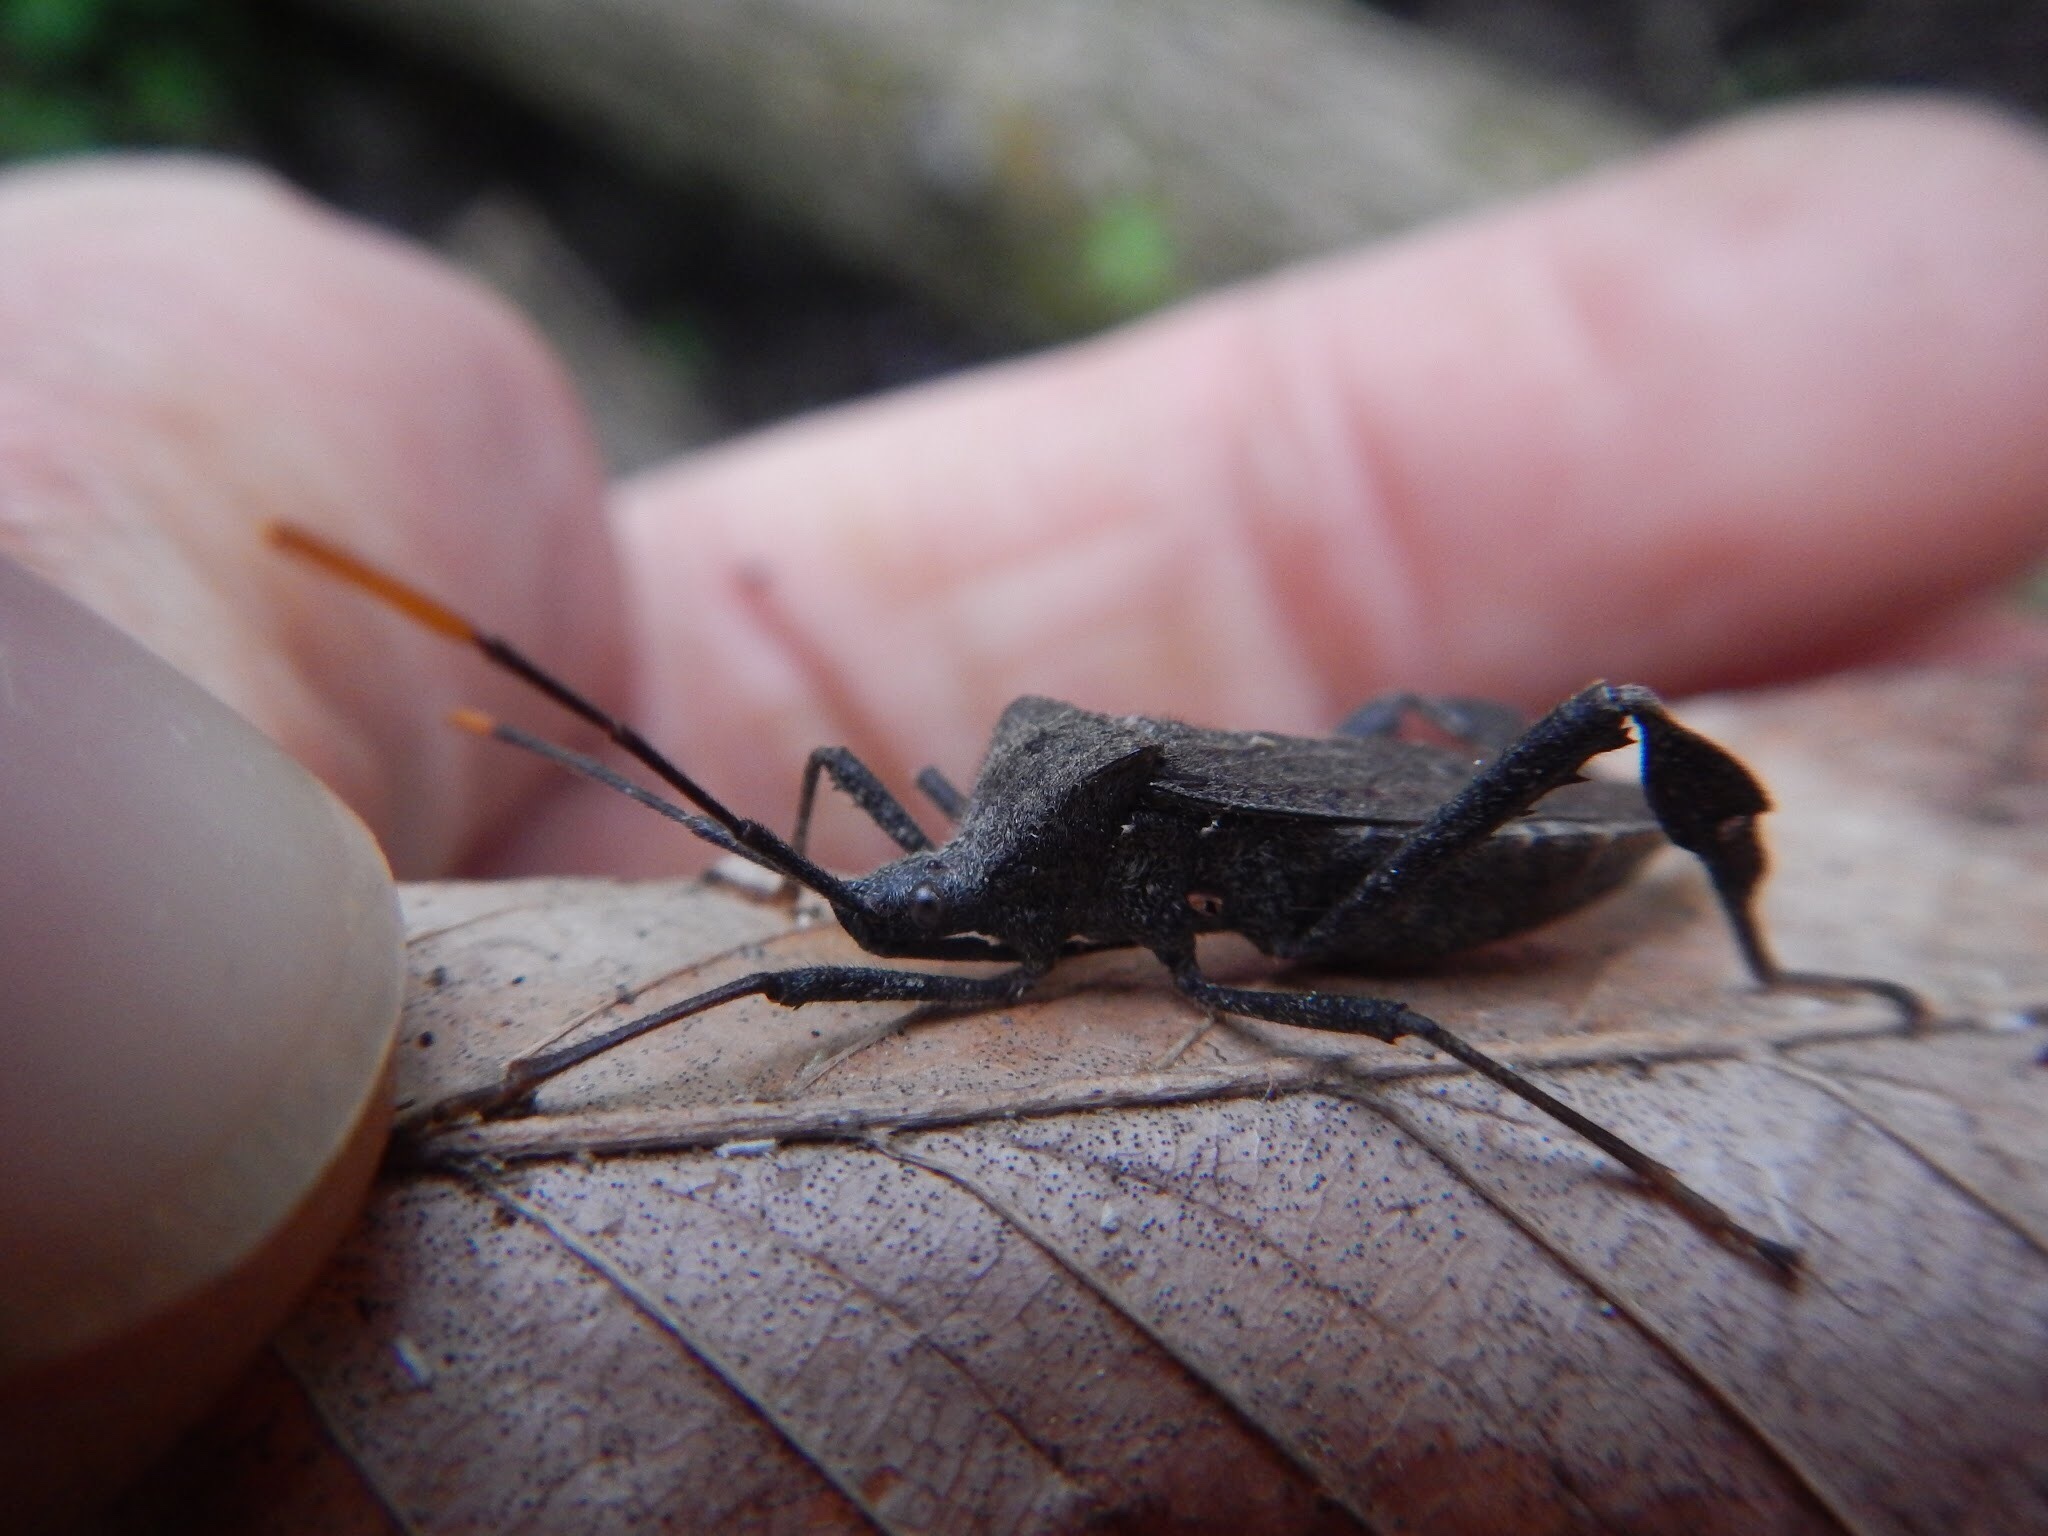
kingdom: Animalia
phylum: Arthropoda
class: Insecta
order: Hemiptera
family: Coreidae
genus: Acanthocephala
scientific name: Acanthocephala terminalis
